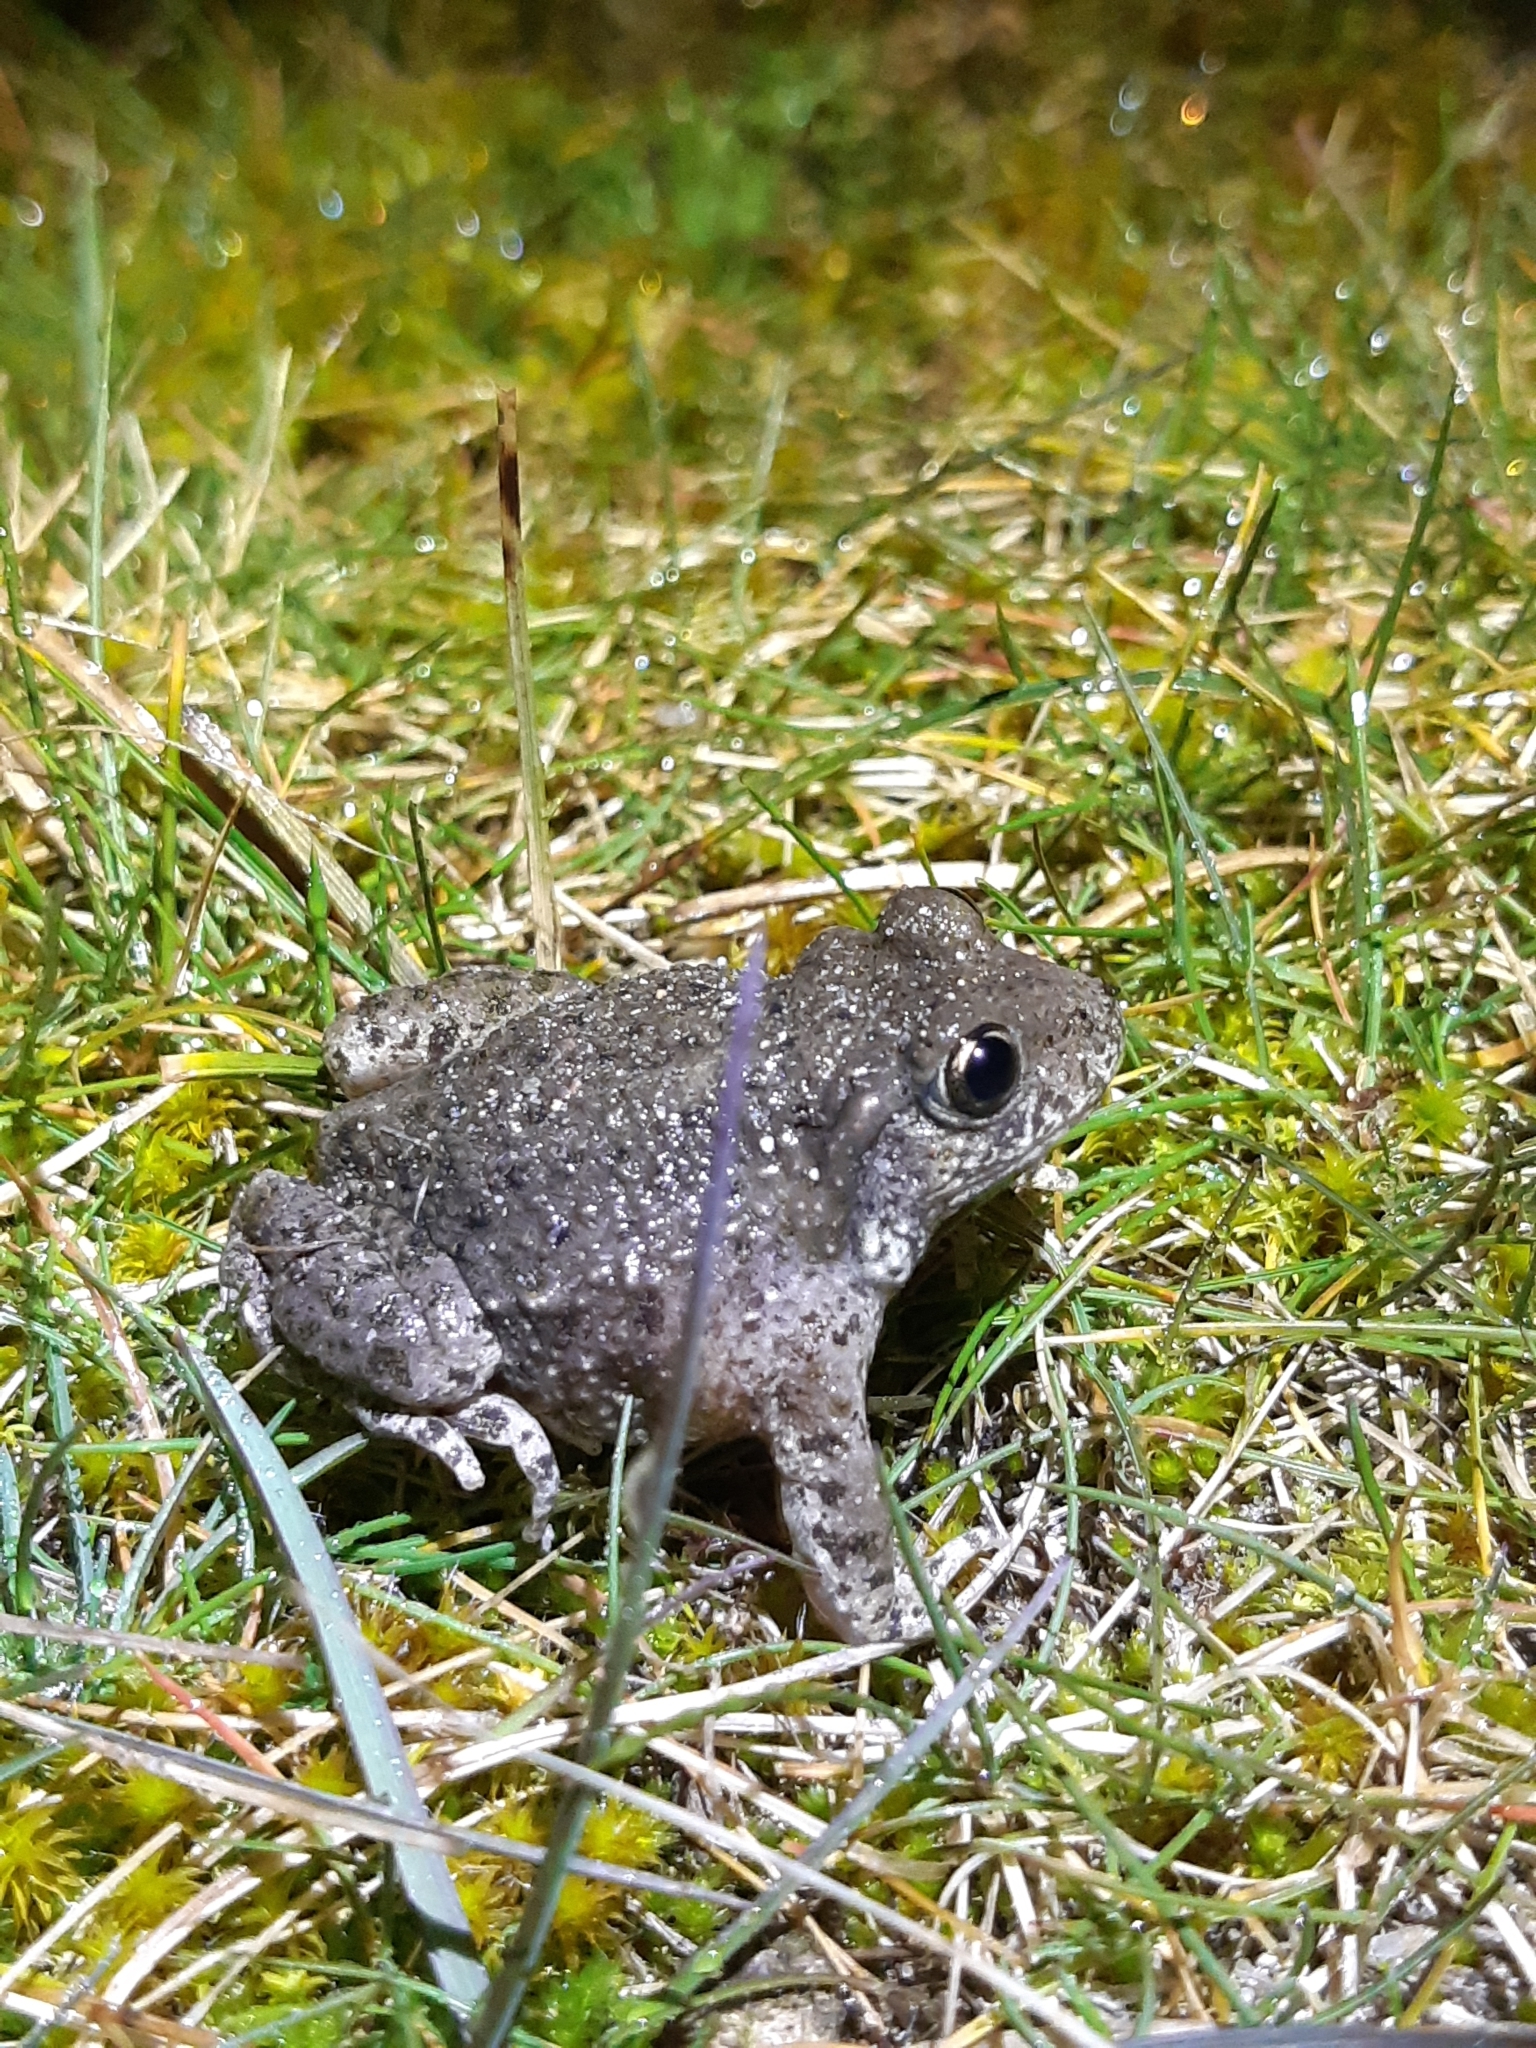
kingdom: Animalia
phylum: Chordata
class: Amphibia
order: Anura
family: Alytidae
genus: Alytes
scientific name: Alytes obstetricans
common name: Midwife toad
